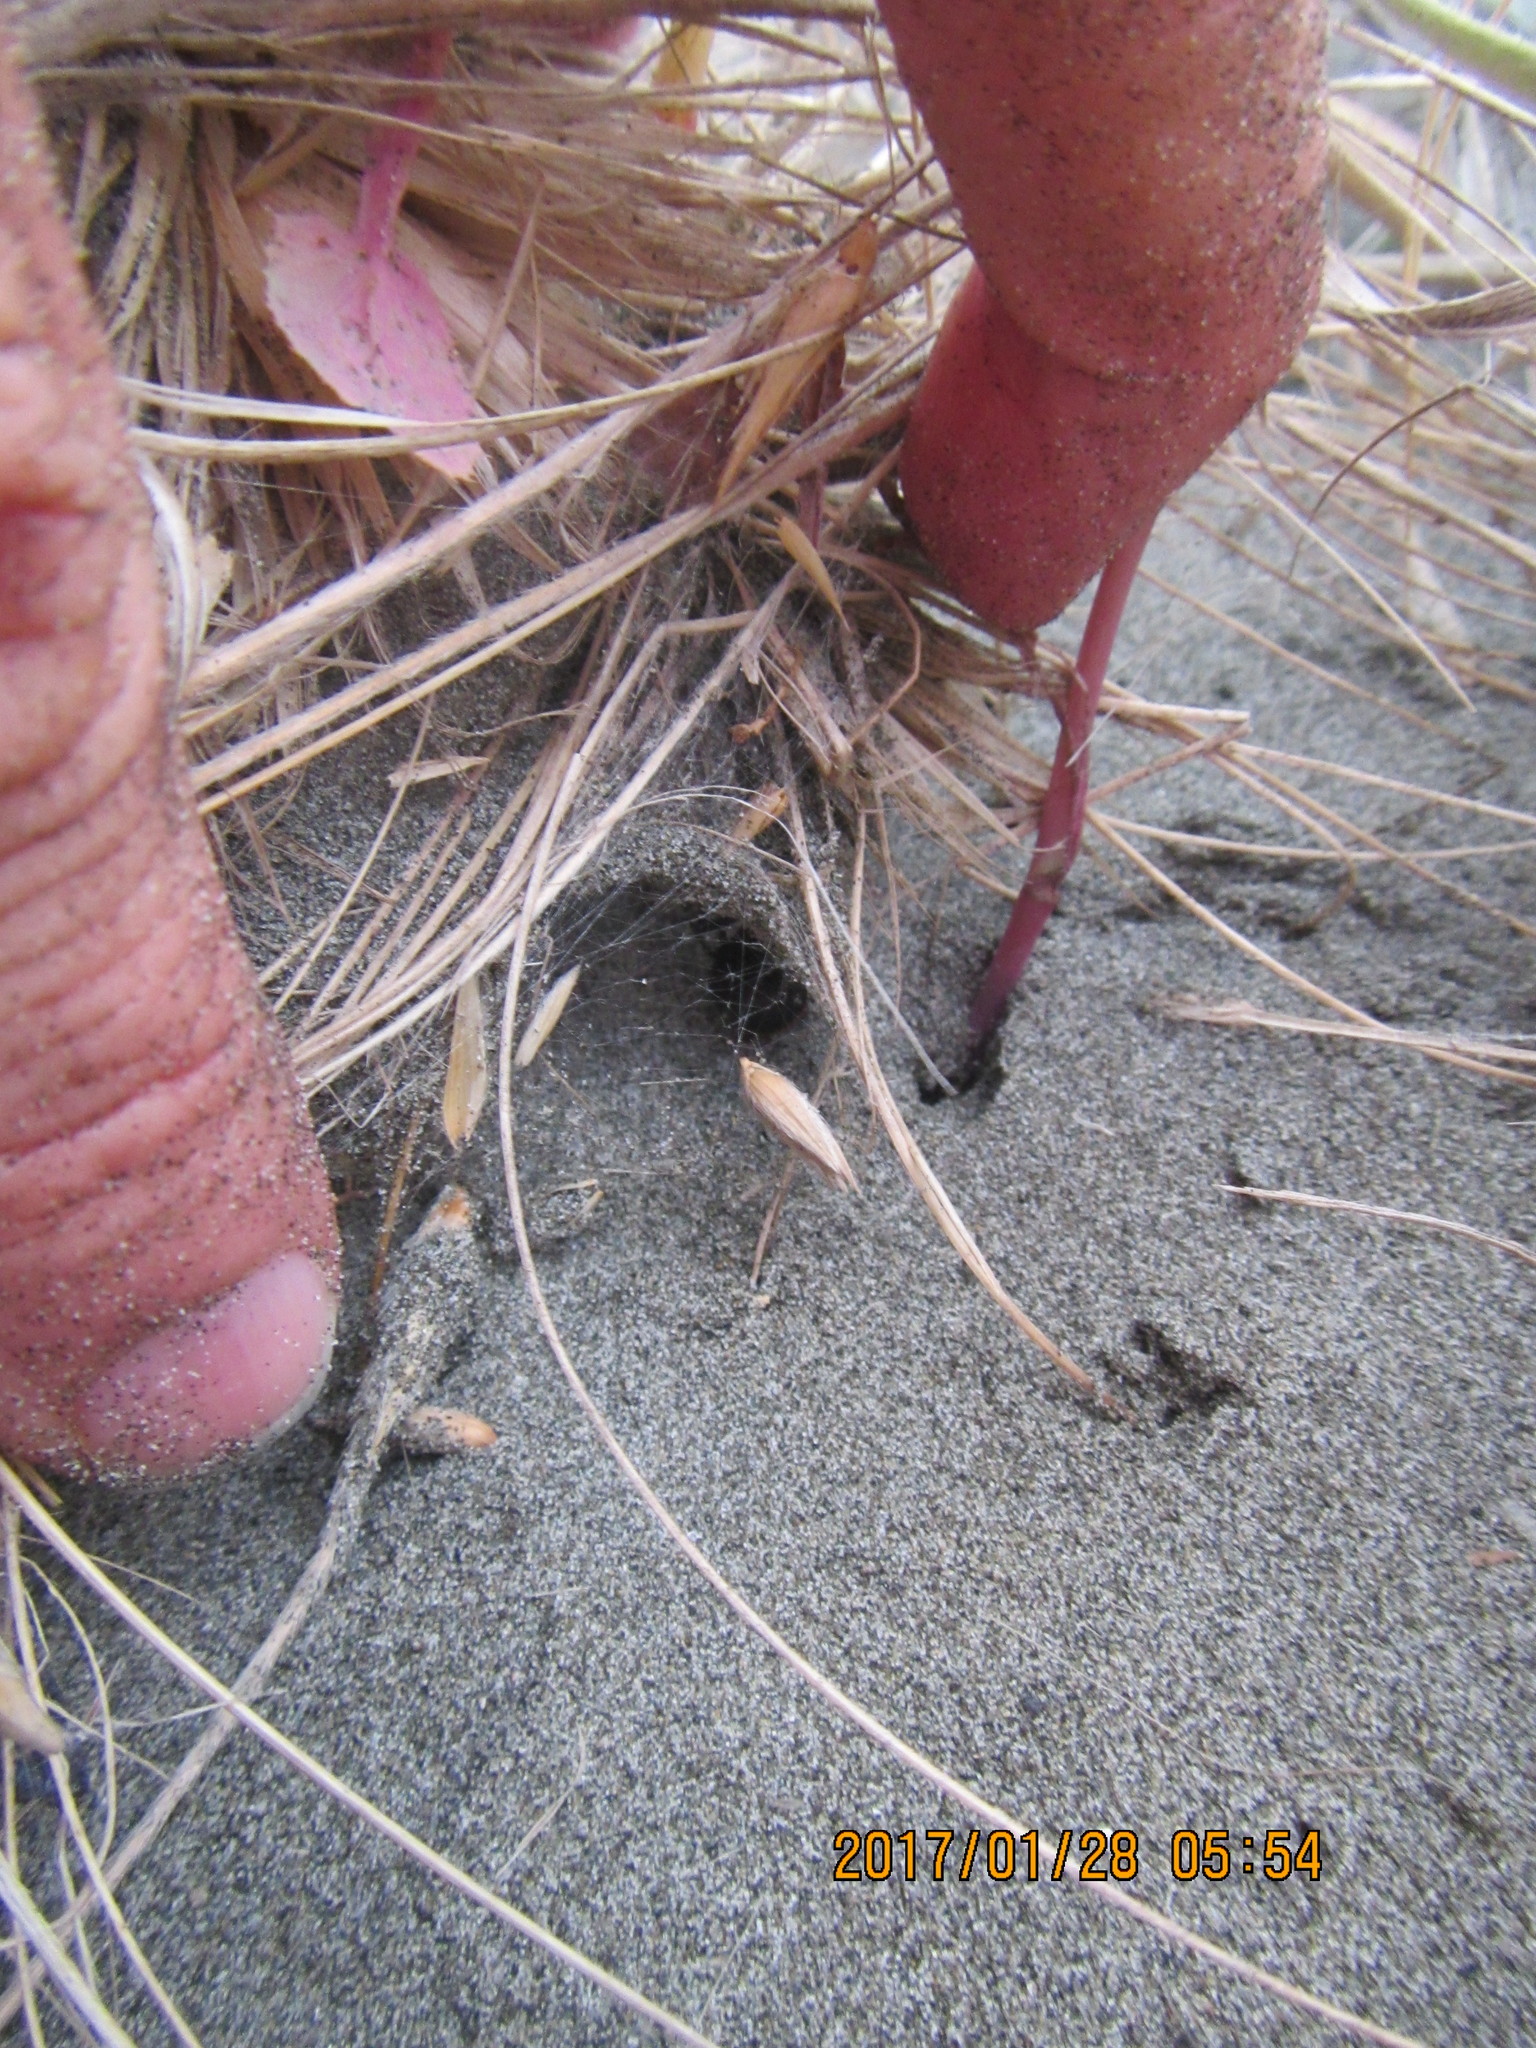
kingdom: Animalia
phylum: Arthropoda
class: Arachnida
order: Araneae
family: Theridiidae
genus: Latrodectus
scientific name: Latrodectus katipo
